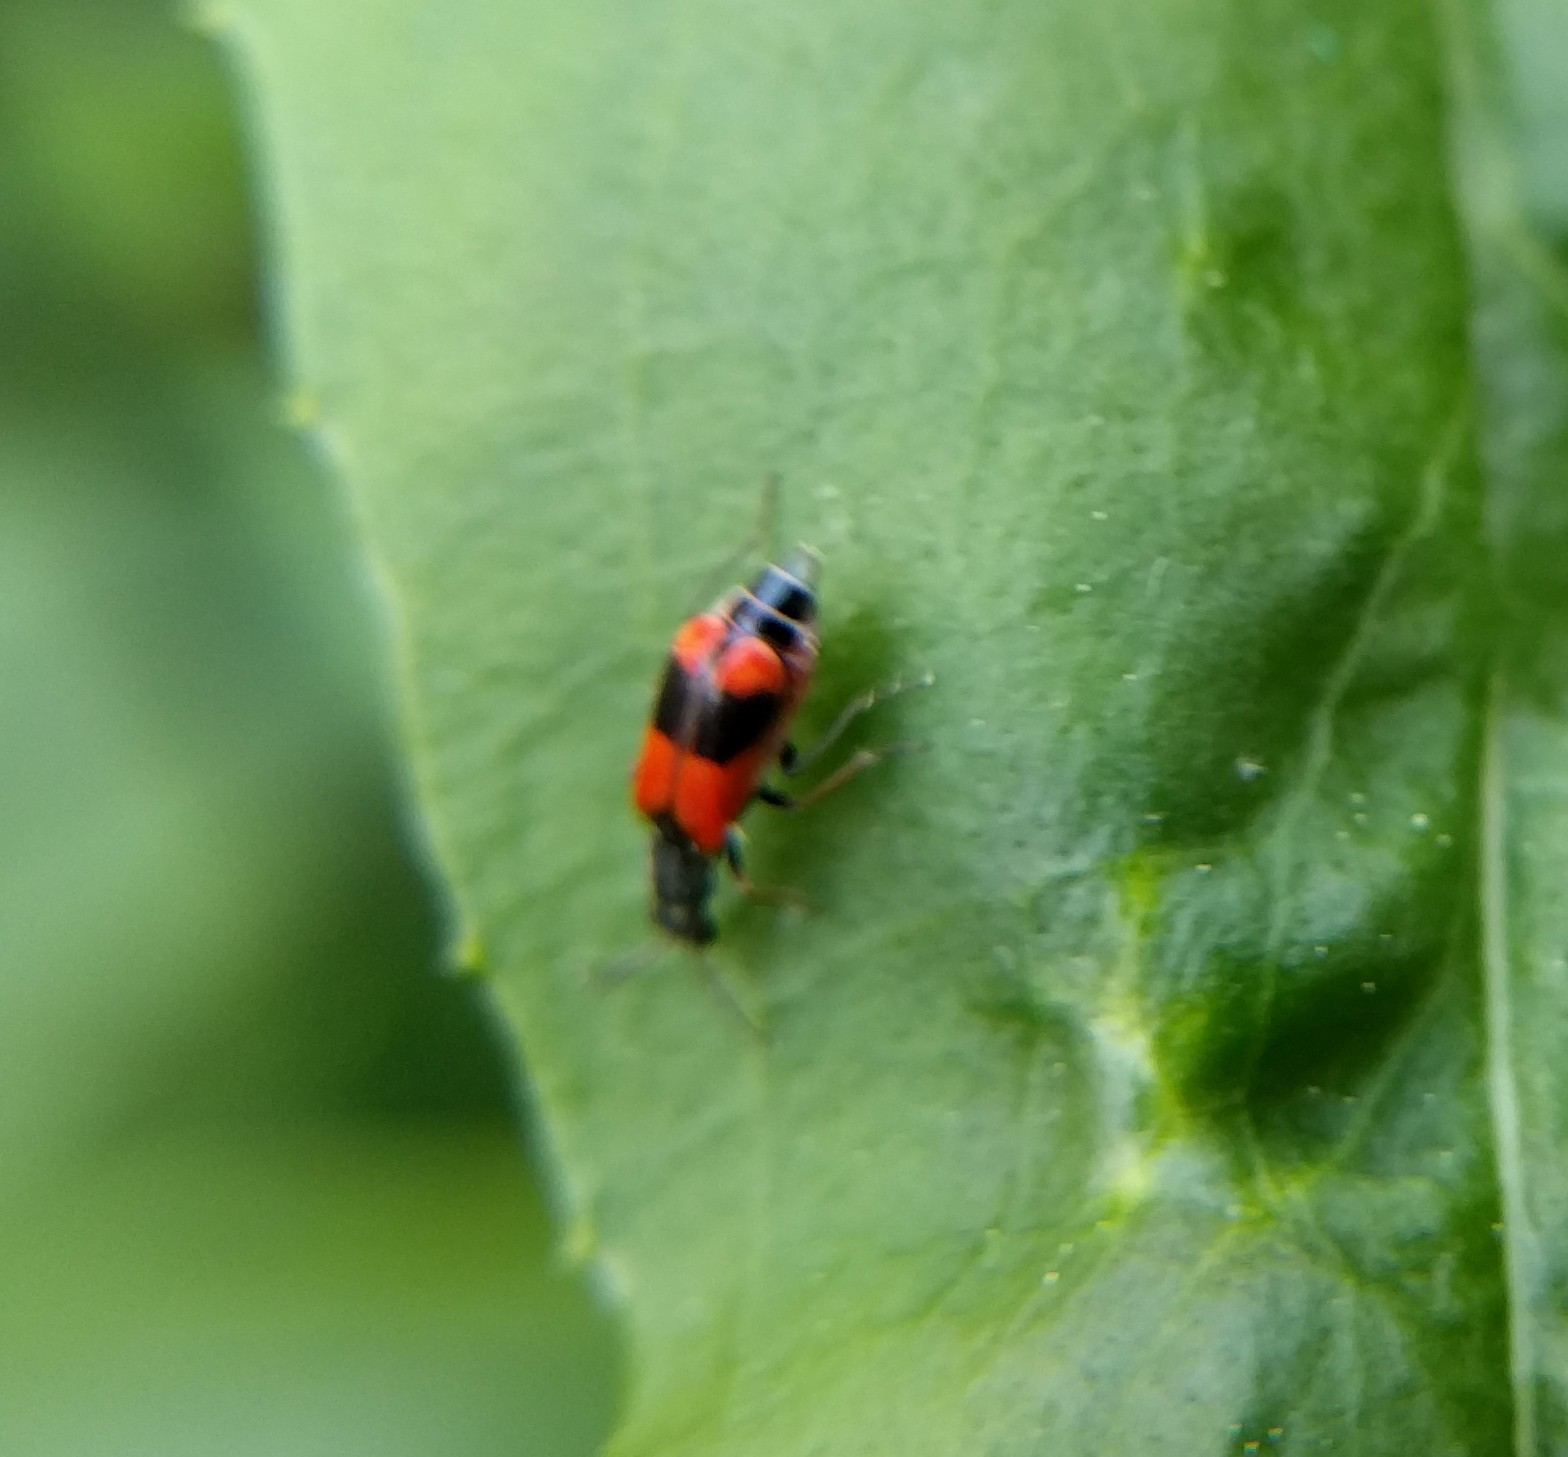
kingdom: Animalia
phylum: Arthropoda
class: Insecta
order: Coleoptera
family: Melyridae
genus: Anthocomus
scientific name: Anthocomus equestris
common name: Black-banded soft-winged flower beetle
